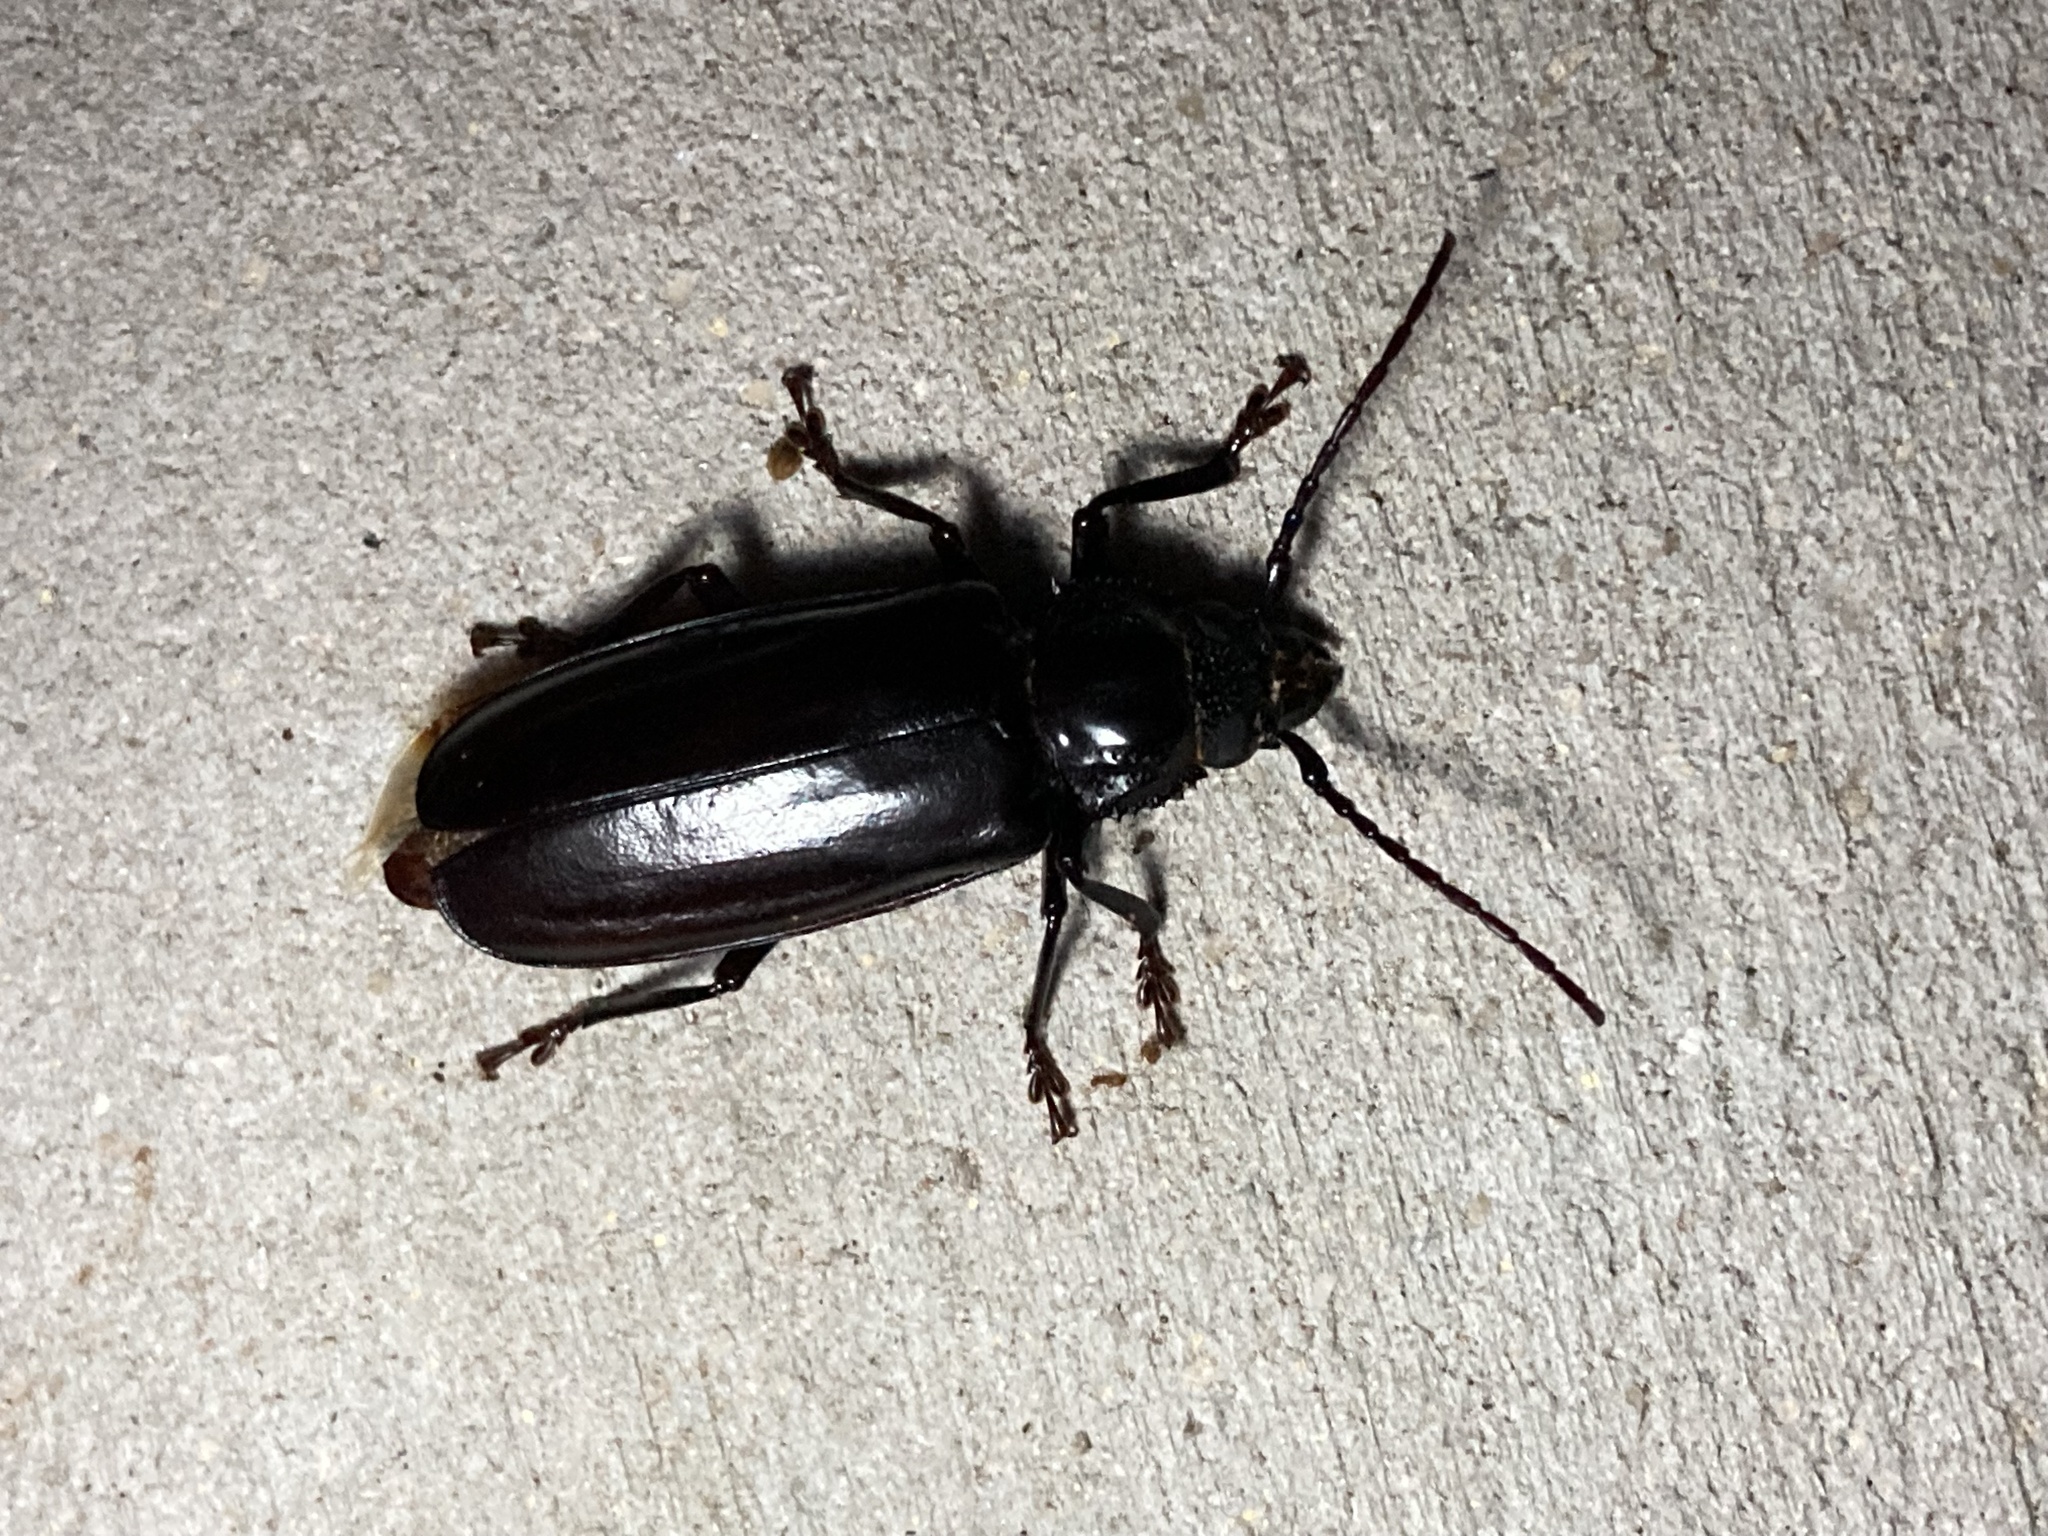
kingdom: Animalia
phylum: Arthropoda
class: Insecta
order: Coleoptera
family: Cerambycidae
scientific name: Cerambycidae
